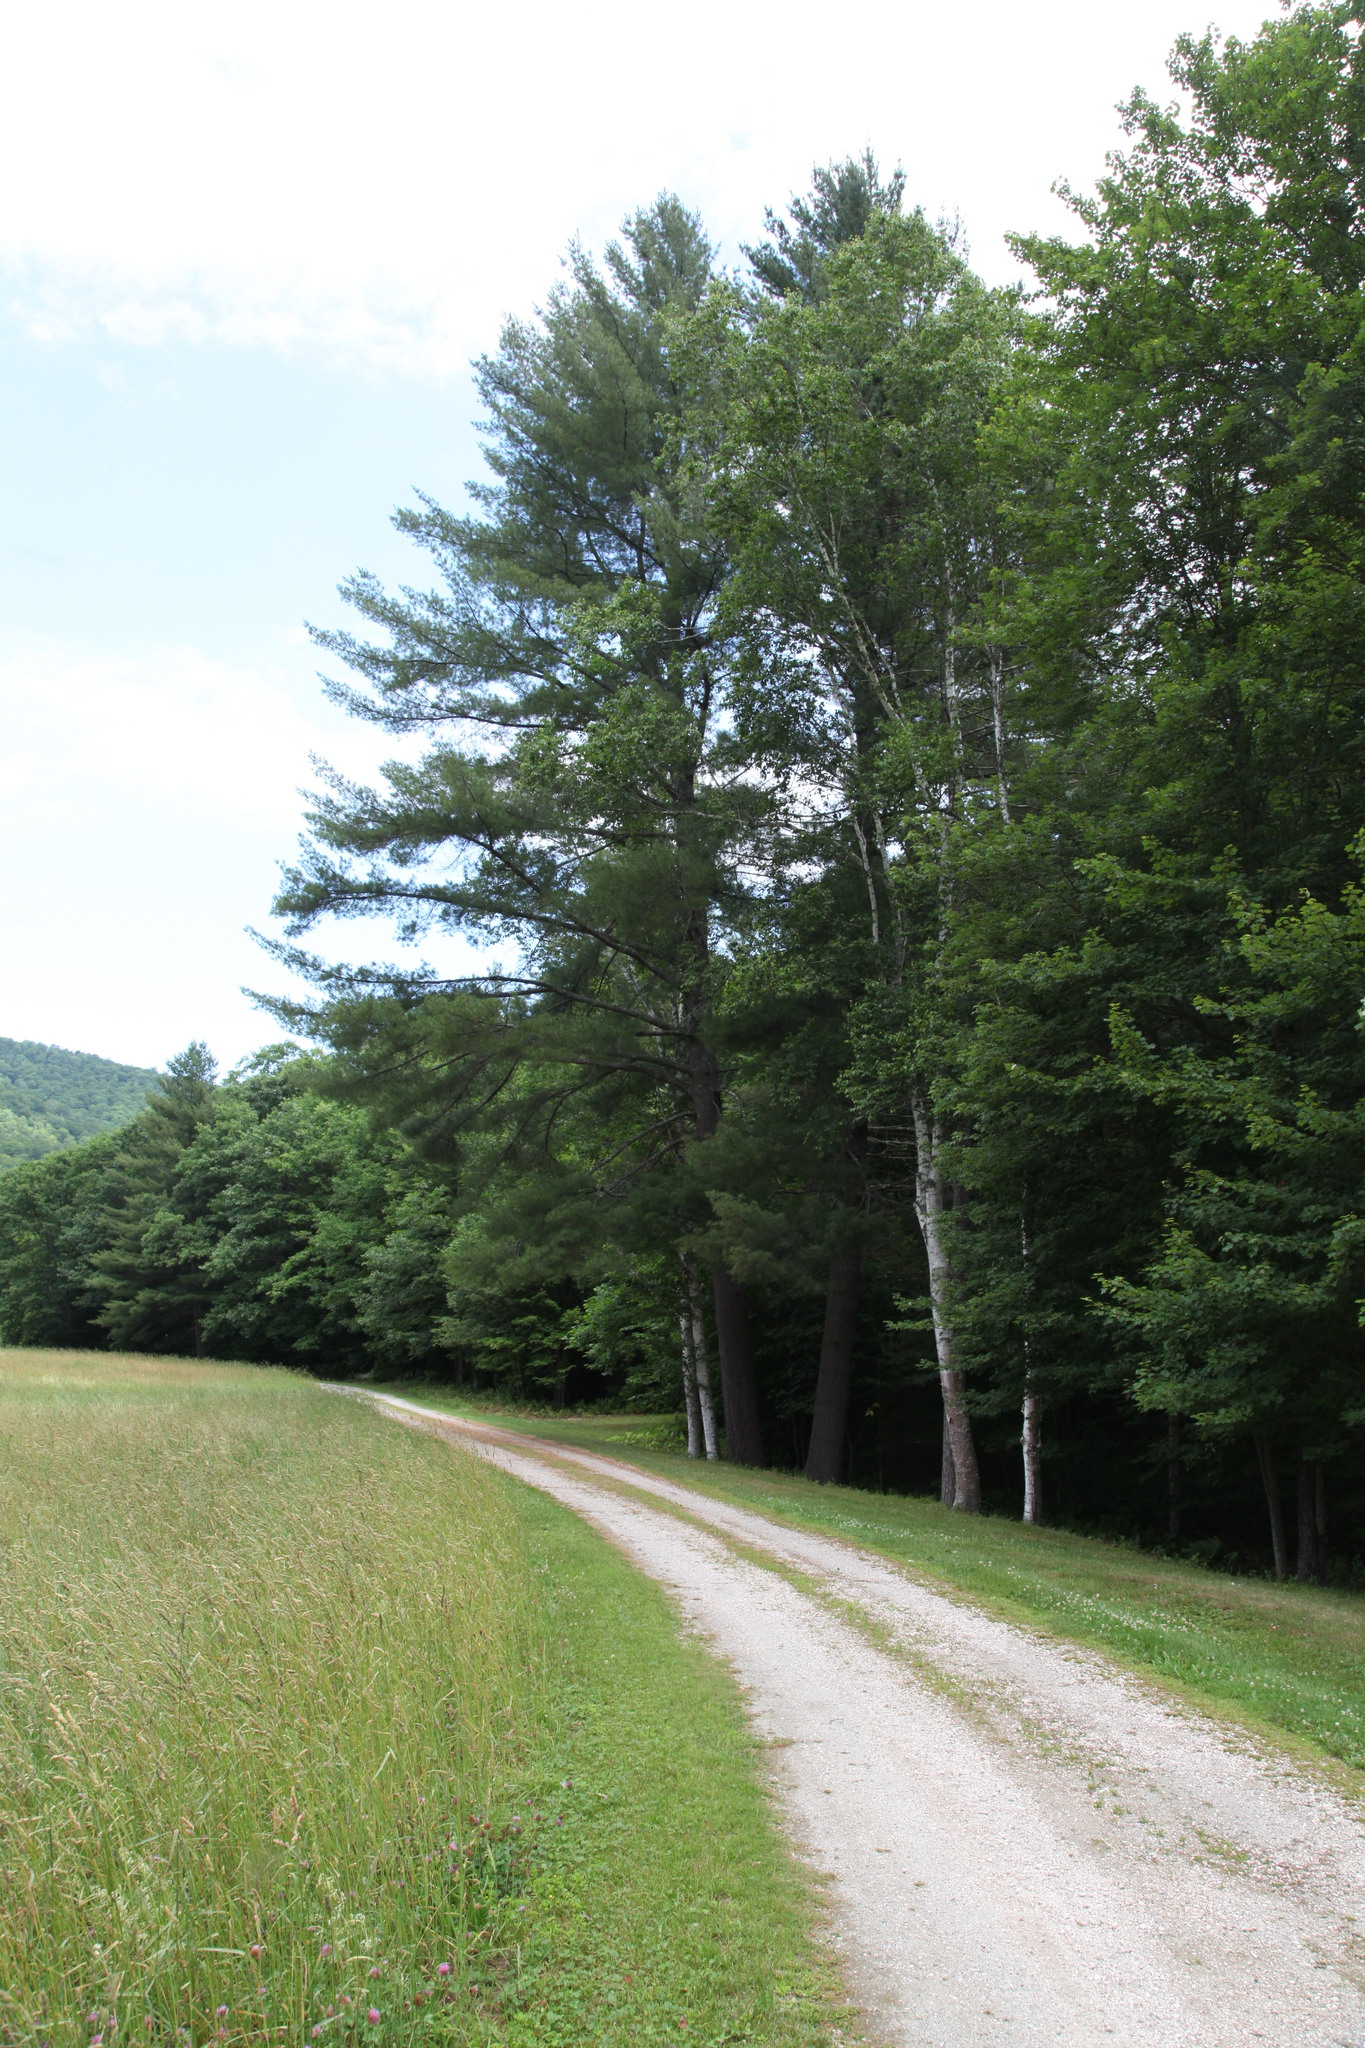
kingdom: Plantae
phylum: Tracheophyta
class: Pinopsida
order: Pinales
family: Pinaceae
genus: Pinus
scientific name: Pinus strobus
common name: Weymouth pine
